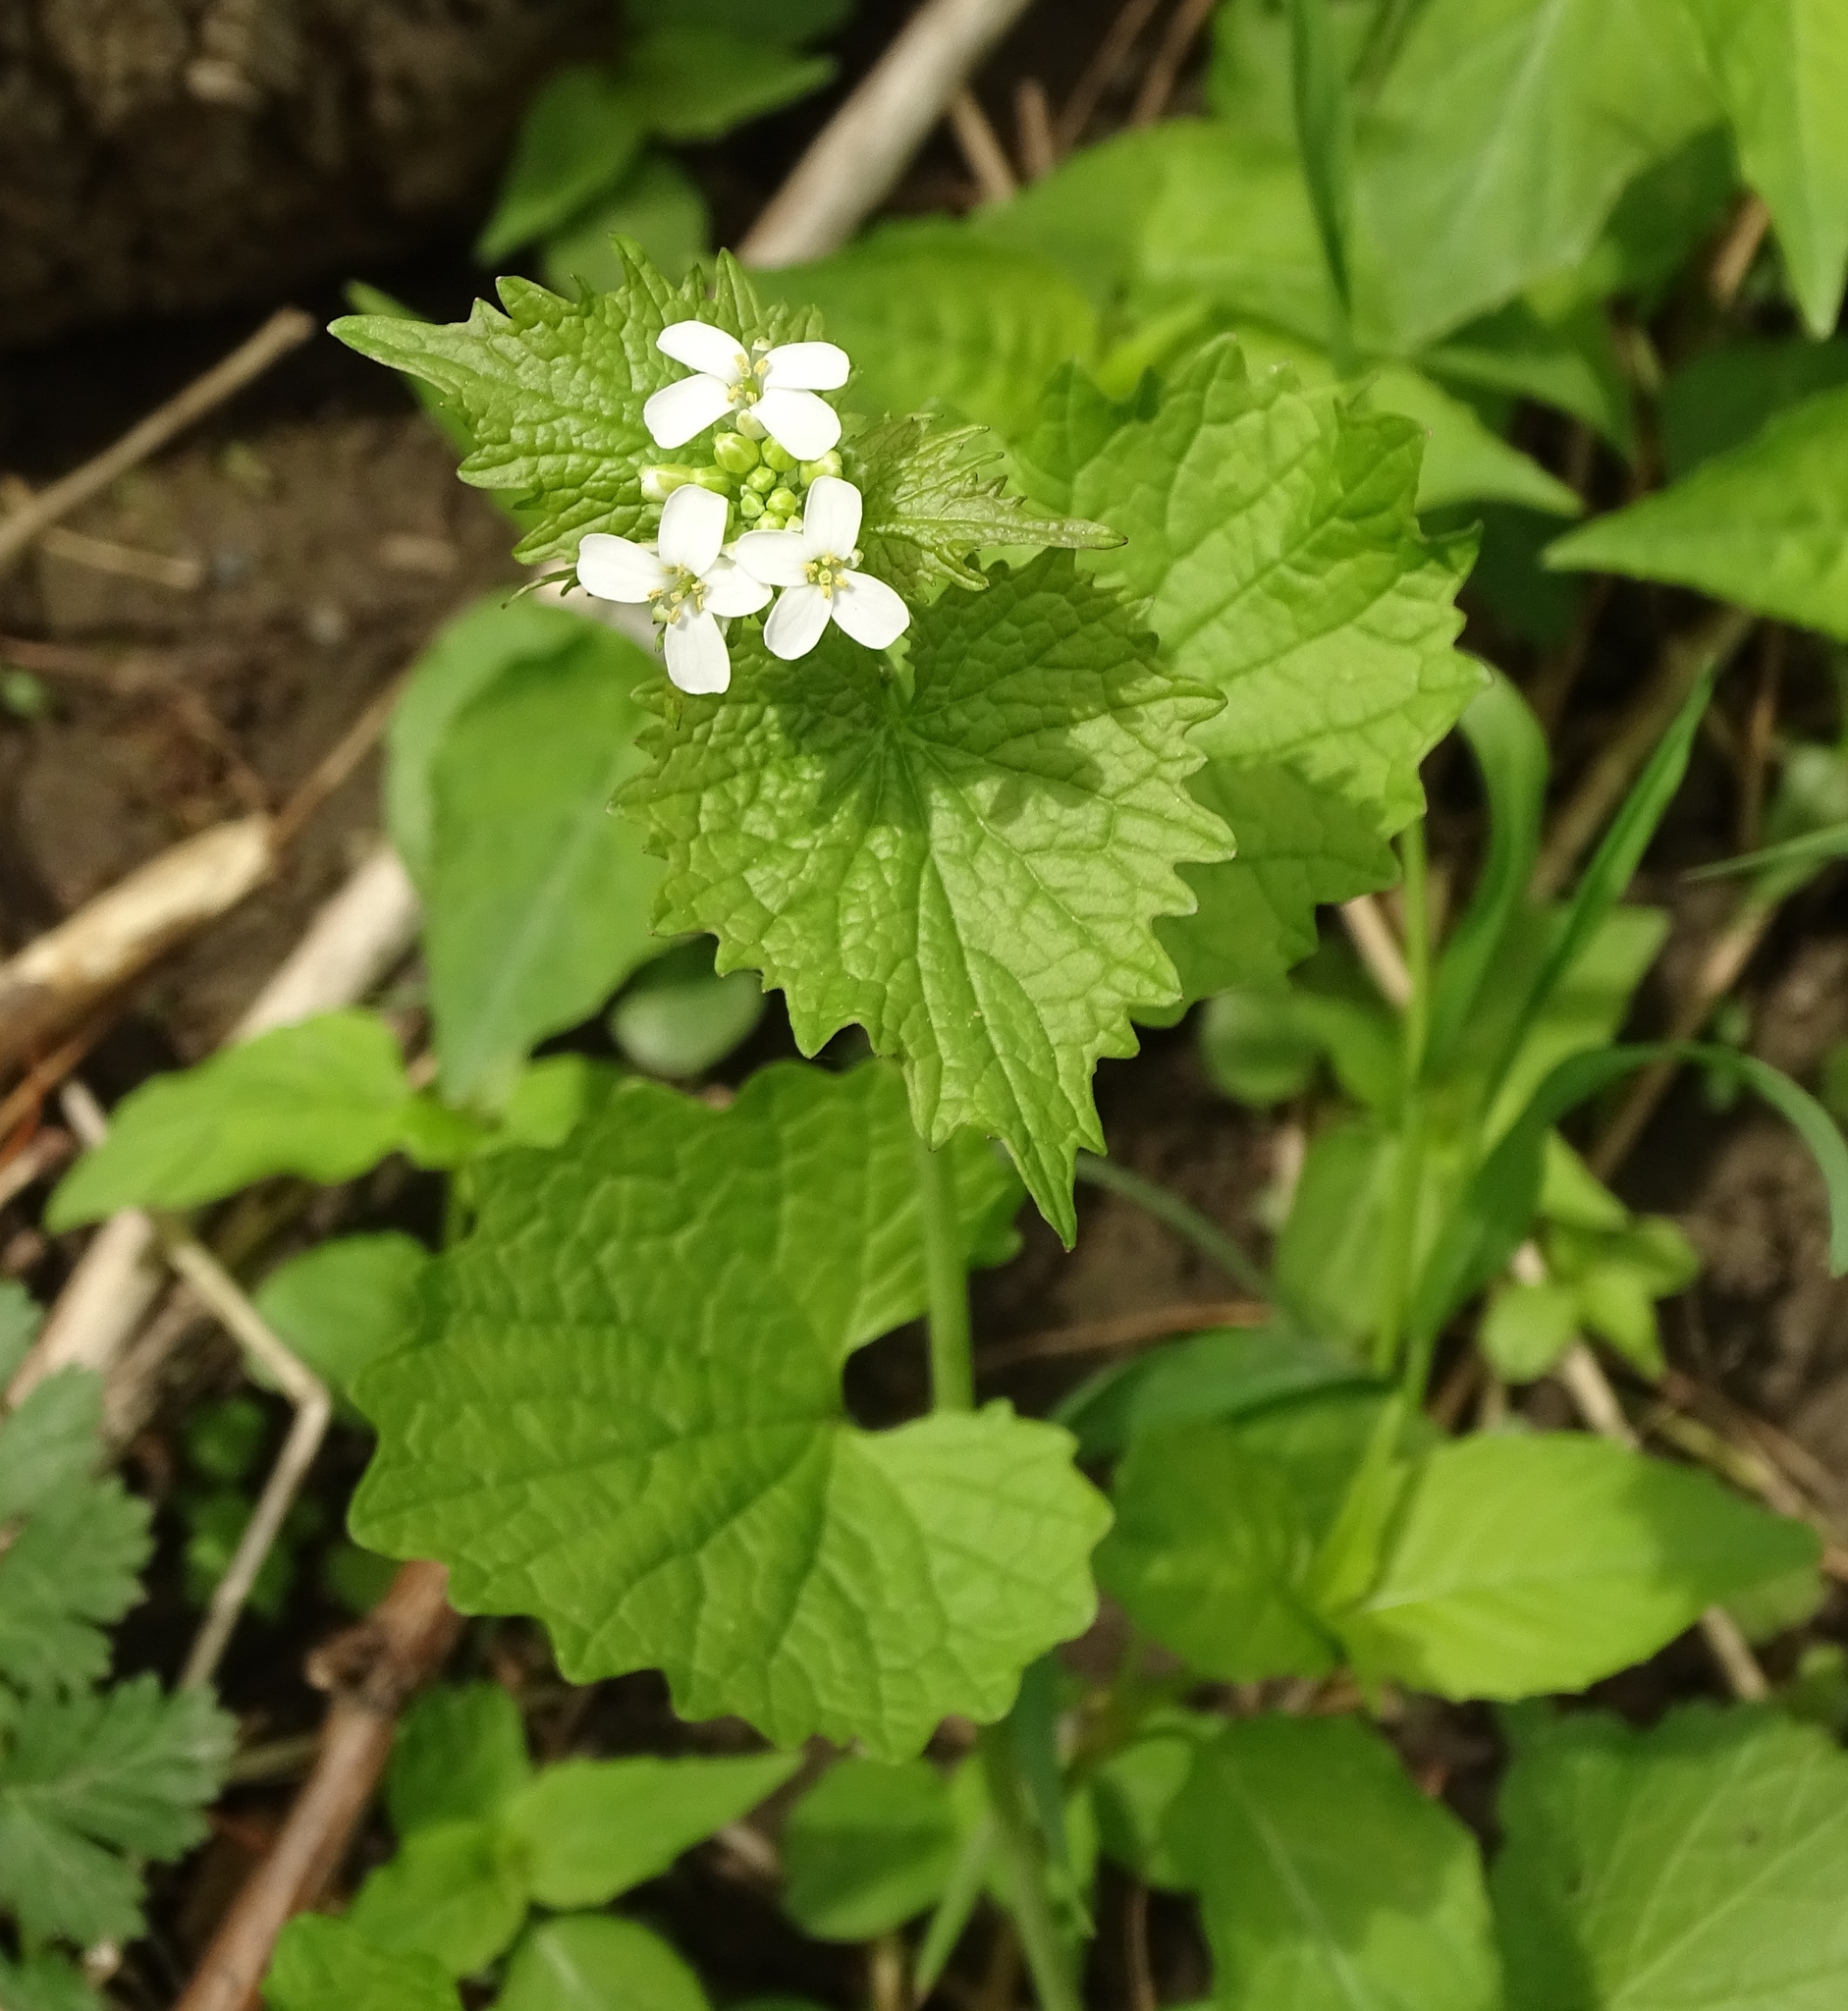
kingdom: Plantae
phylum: Tracheophyta
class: Magnoliopsida
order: Brassicales
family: Brassicaceae
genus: Alliaria
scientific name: Alliaria petiolata
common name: Garlic mustard
